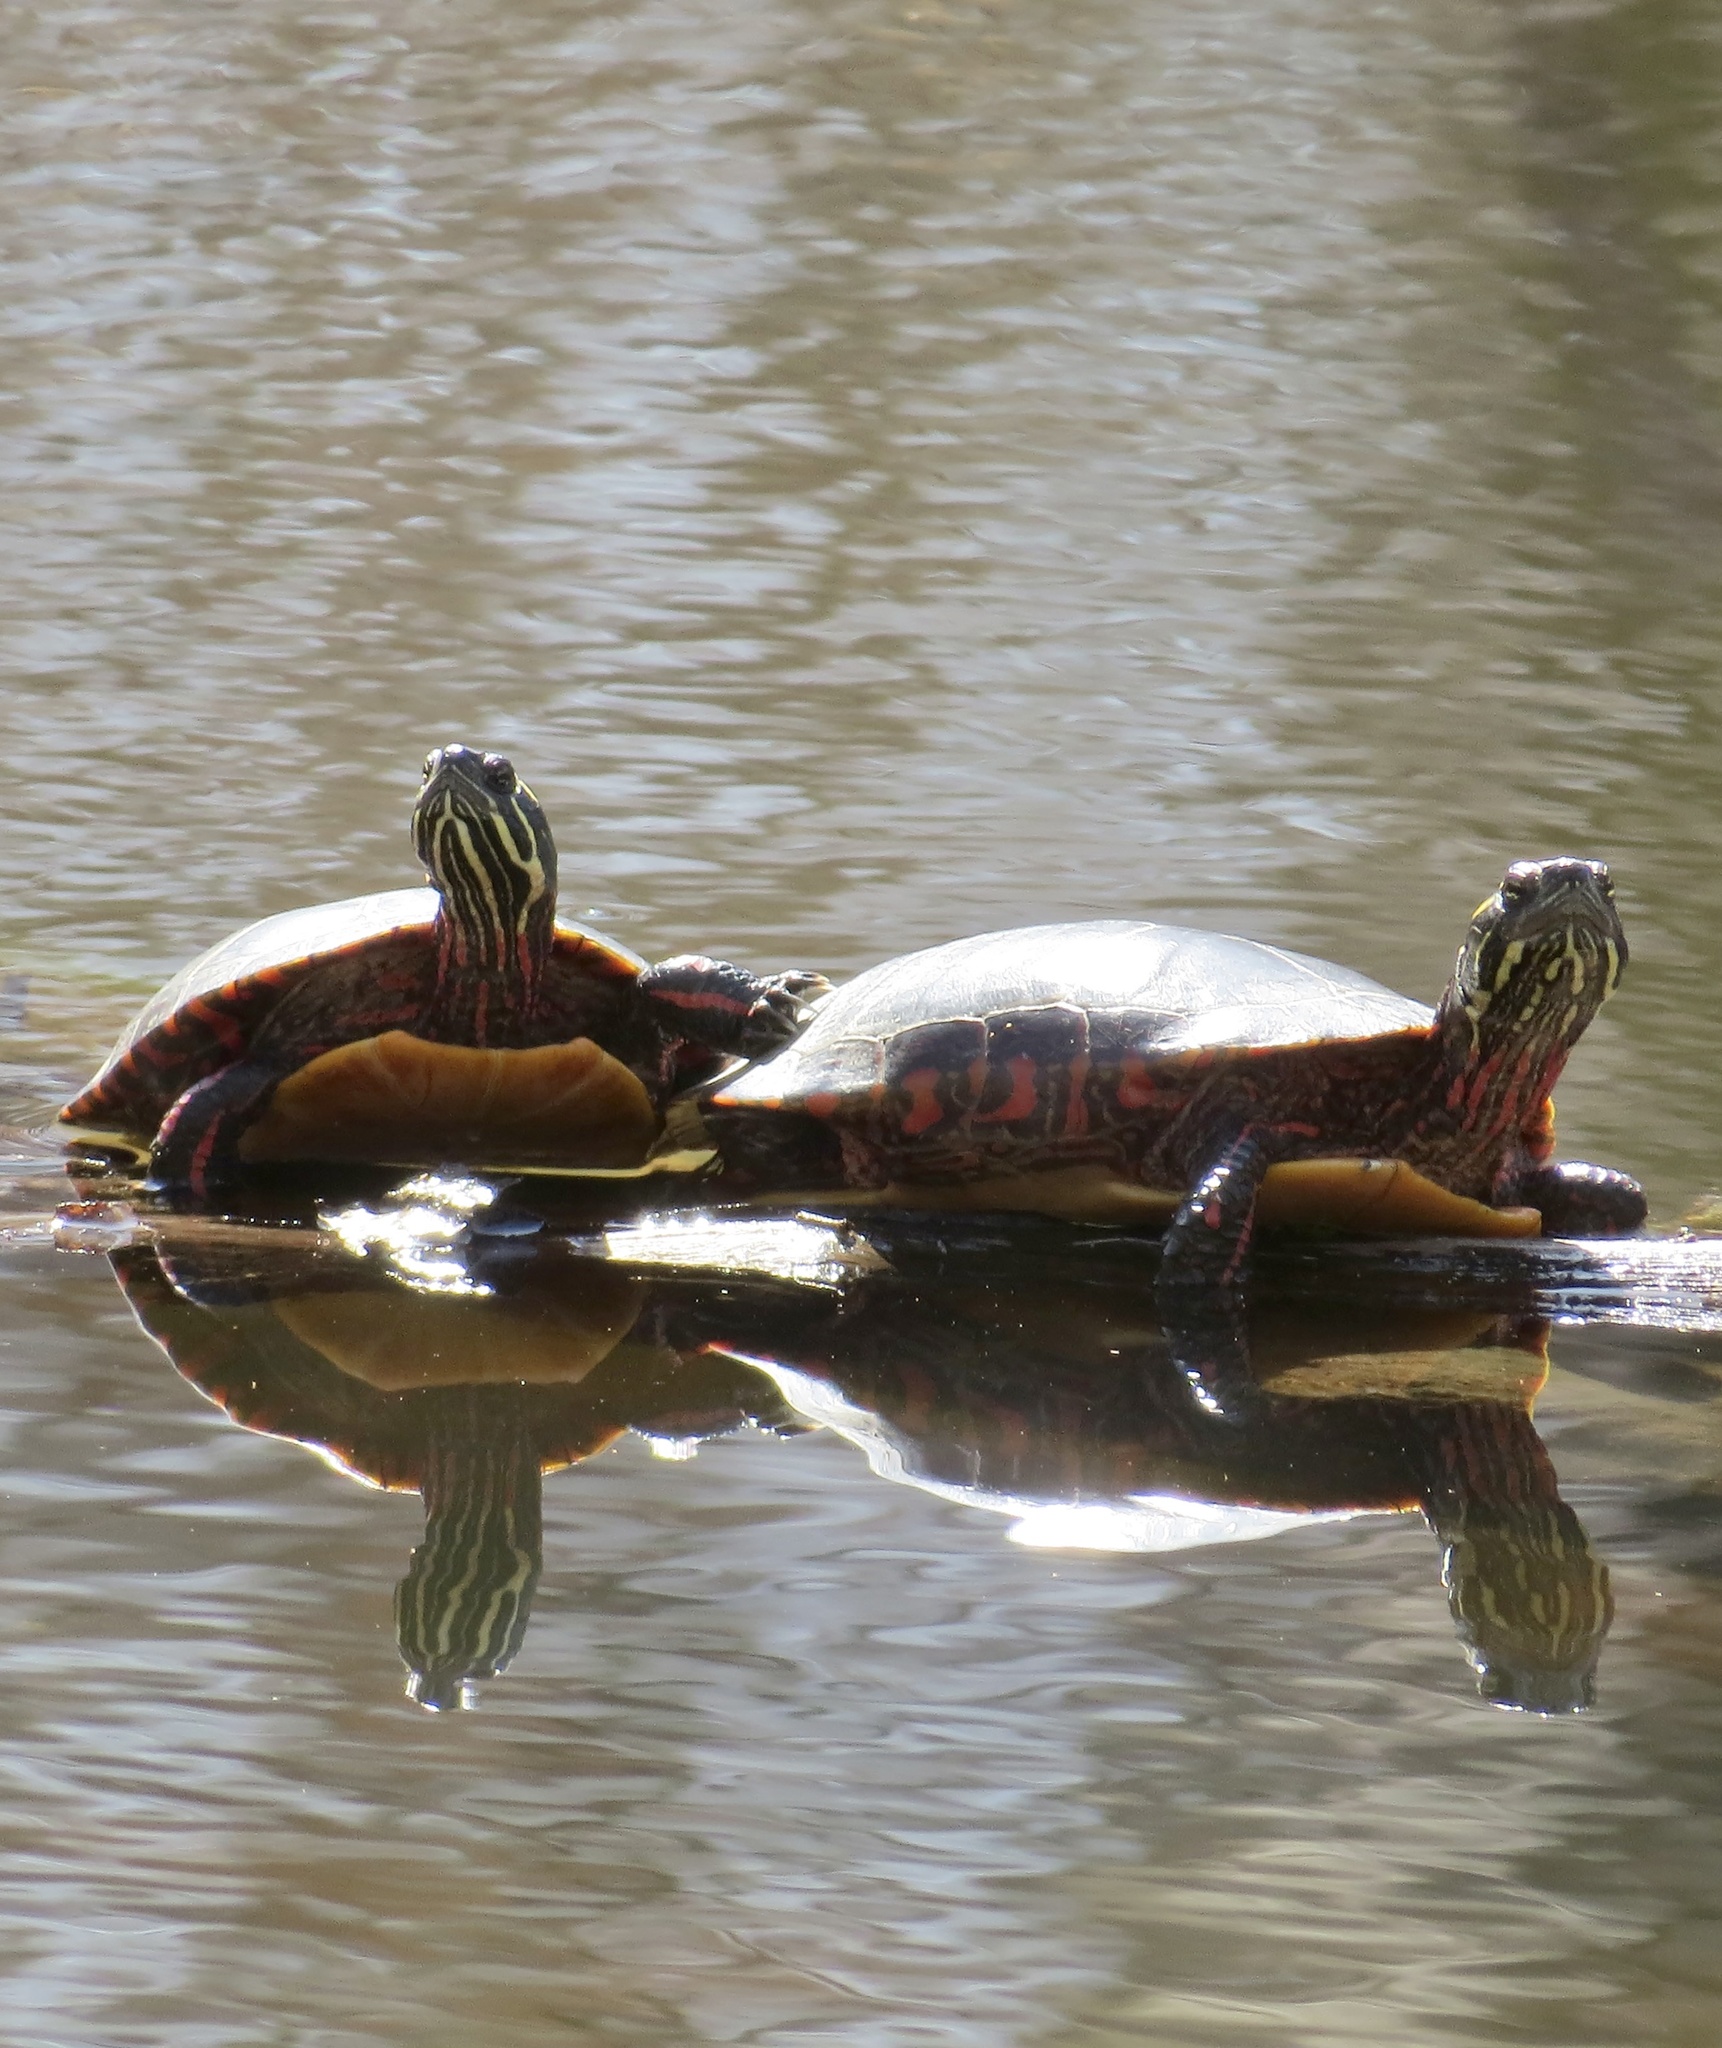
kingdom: Animalia
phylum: Chordata
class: Testudines
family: Emydidae
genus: Chrysemys
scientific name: Chrysemys picta
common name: Painted turtle
